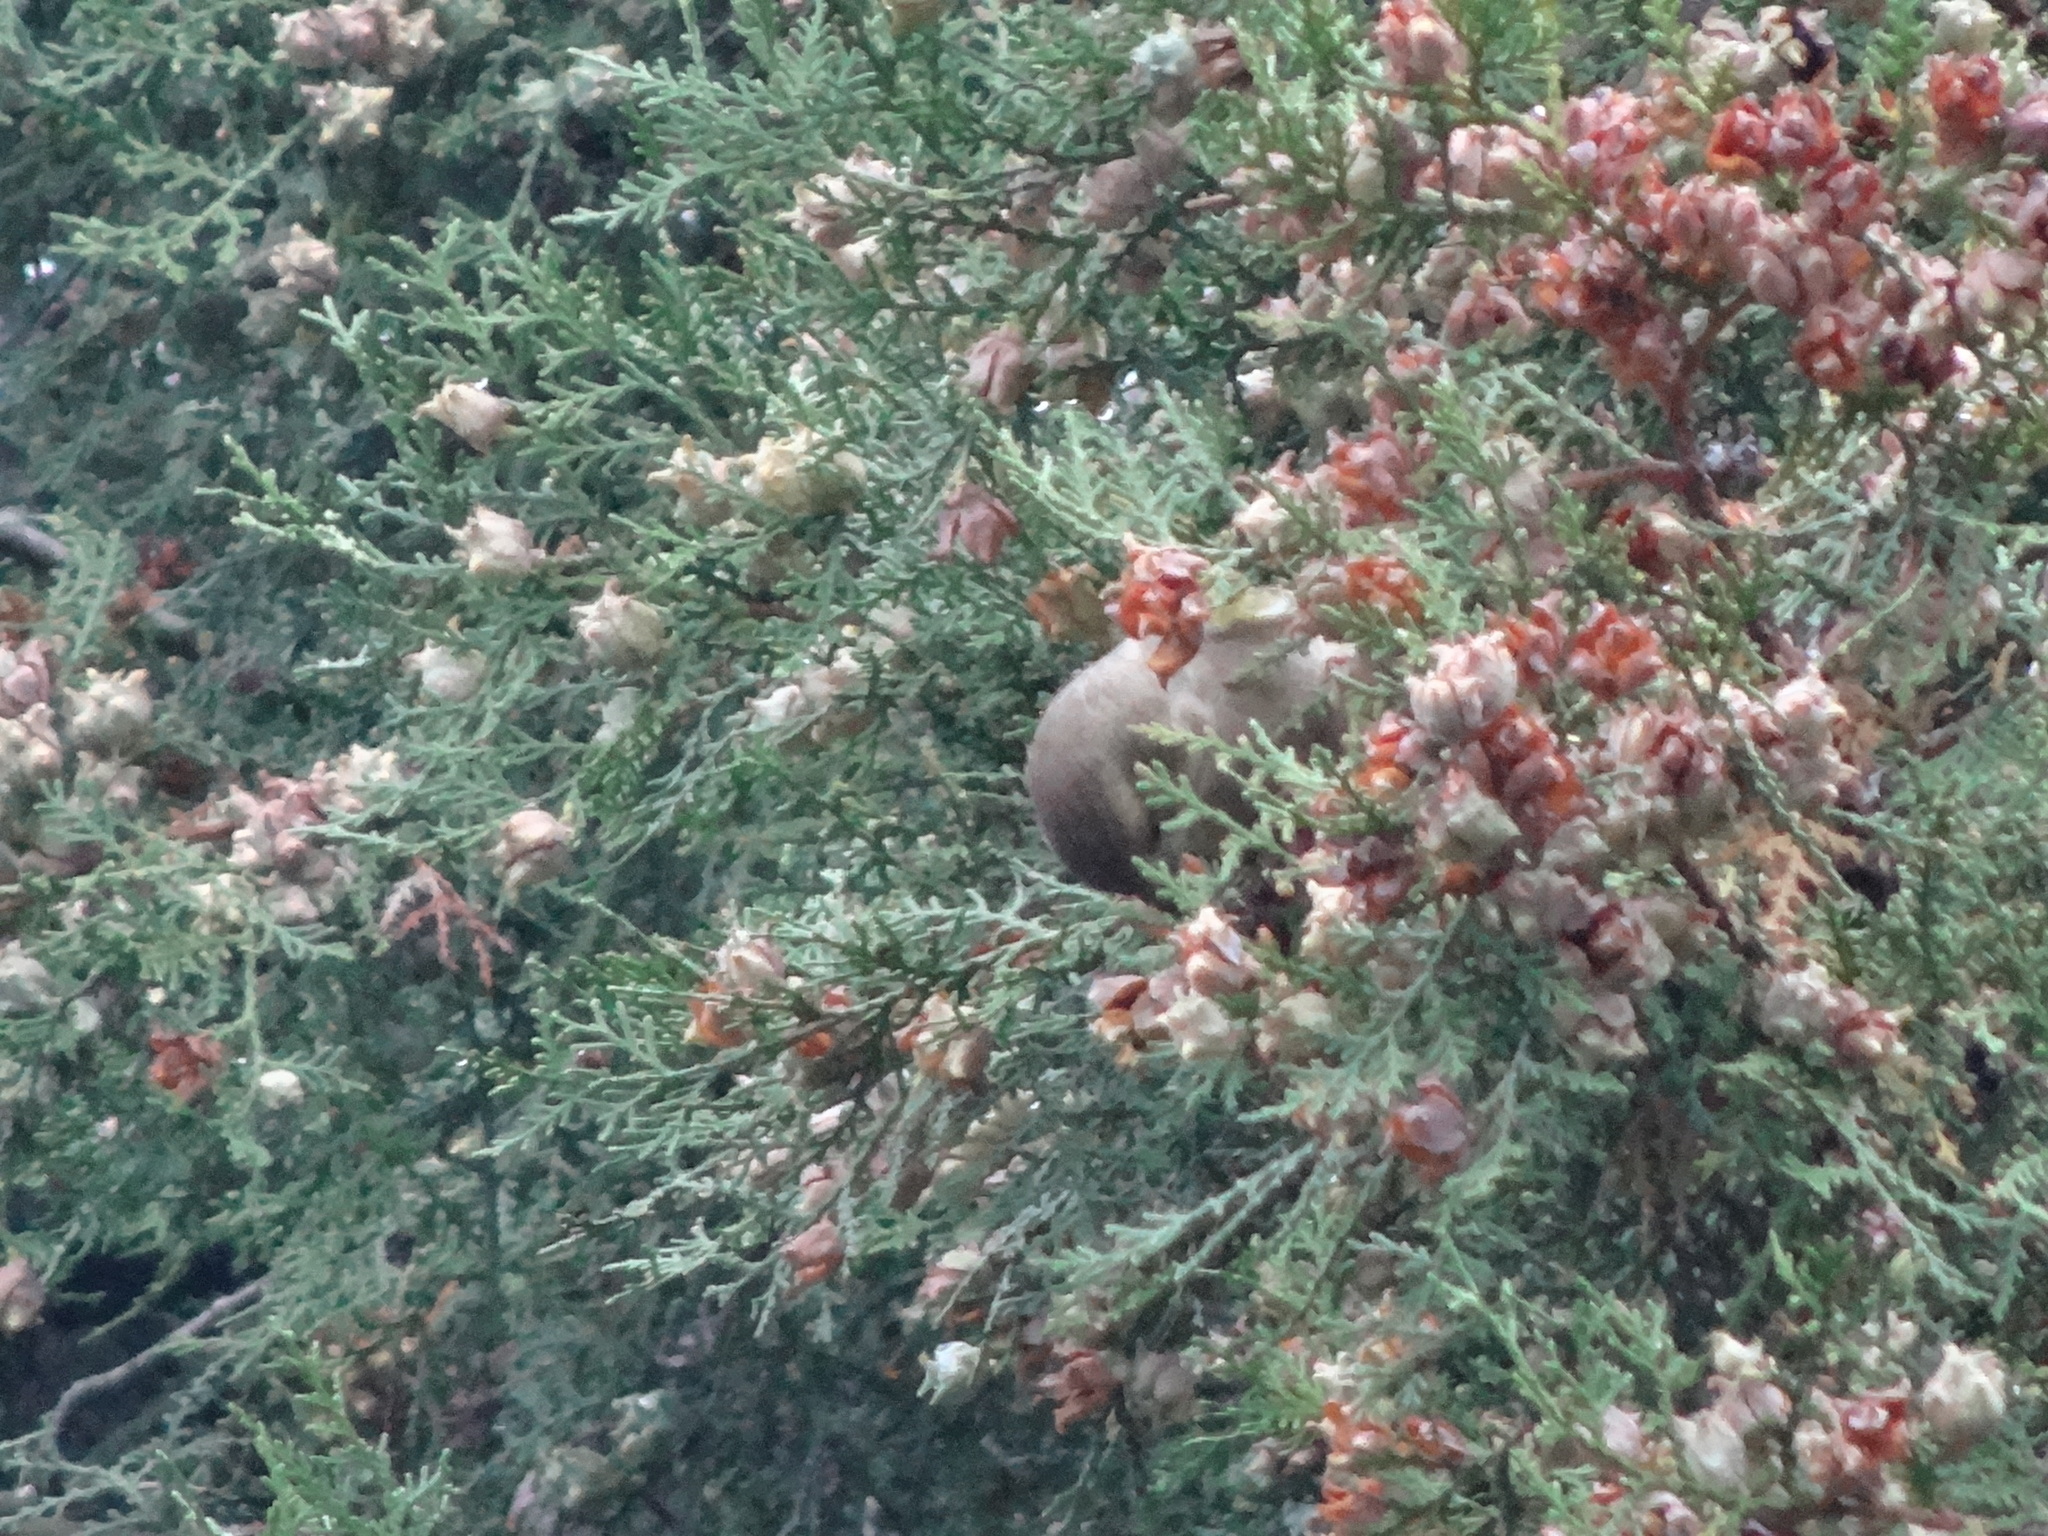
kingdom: Plantae
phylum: Tracheophyta
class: Liliopsida
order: Poales
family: Poaceae
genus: Chloris
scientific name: Chloris chloris
